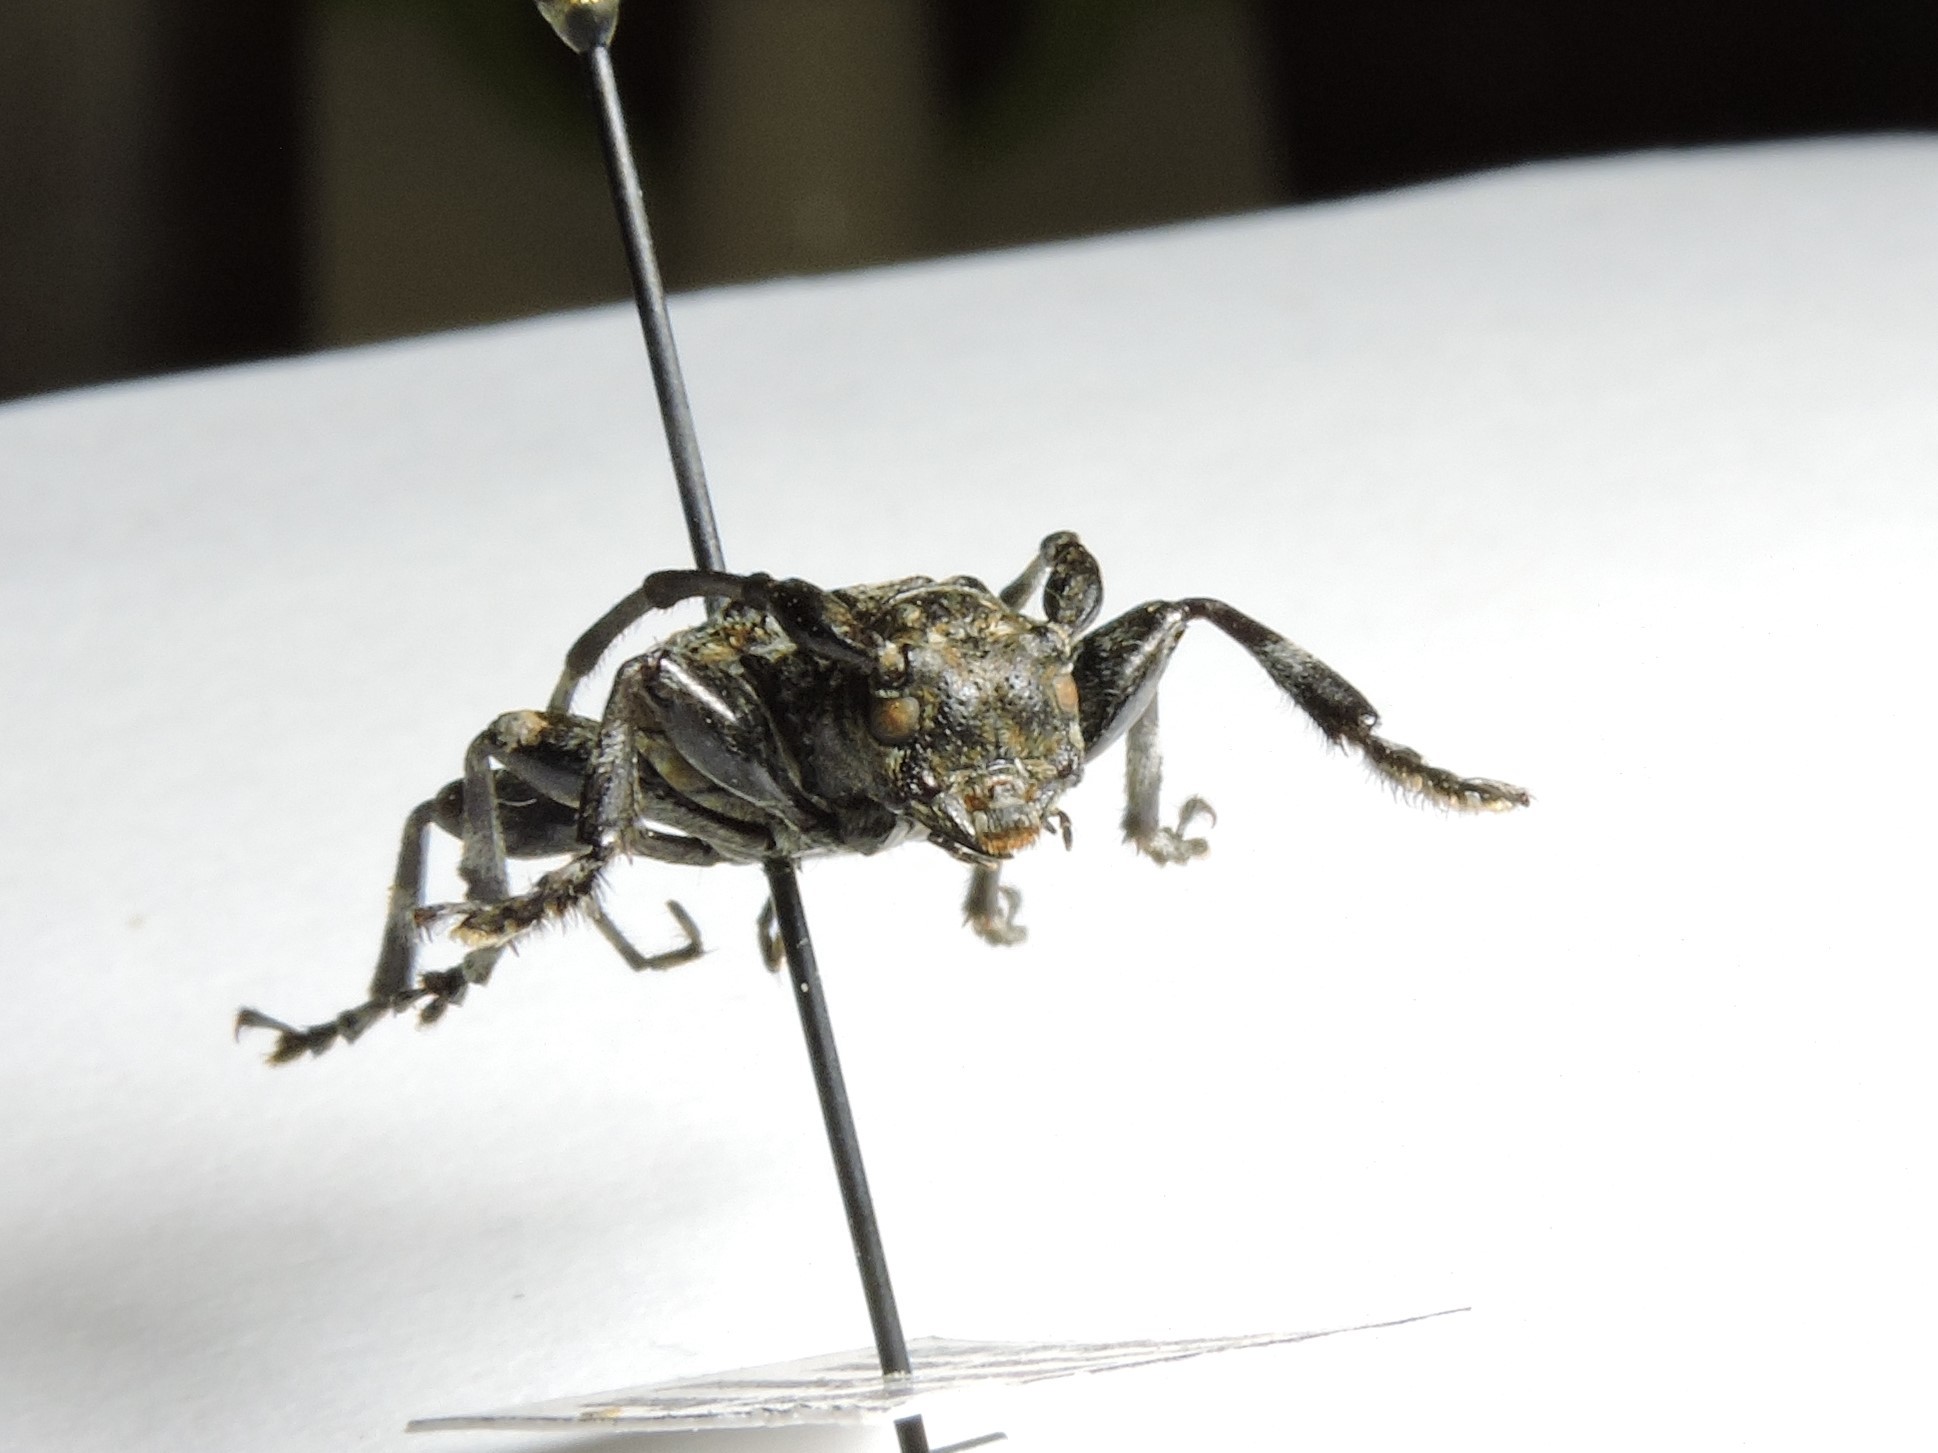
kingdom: Animalia
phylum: Arthropoda
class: Insecta
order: Coleoptera
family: Cerambycidae
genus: Aegomorphus
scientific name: Aegomorphus clavipes
